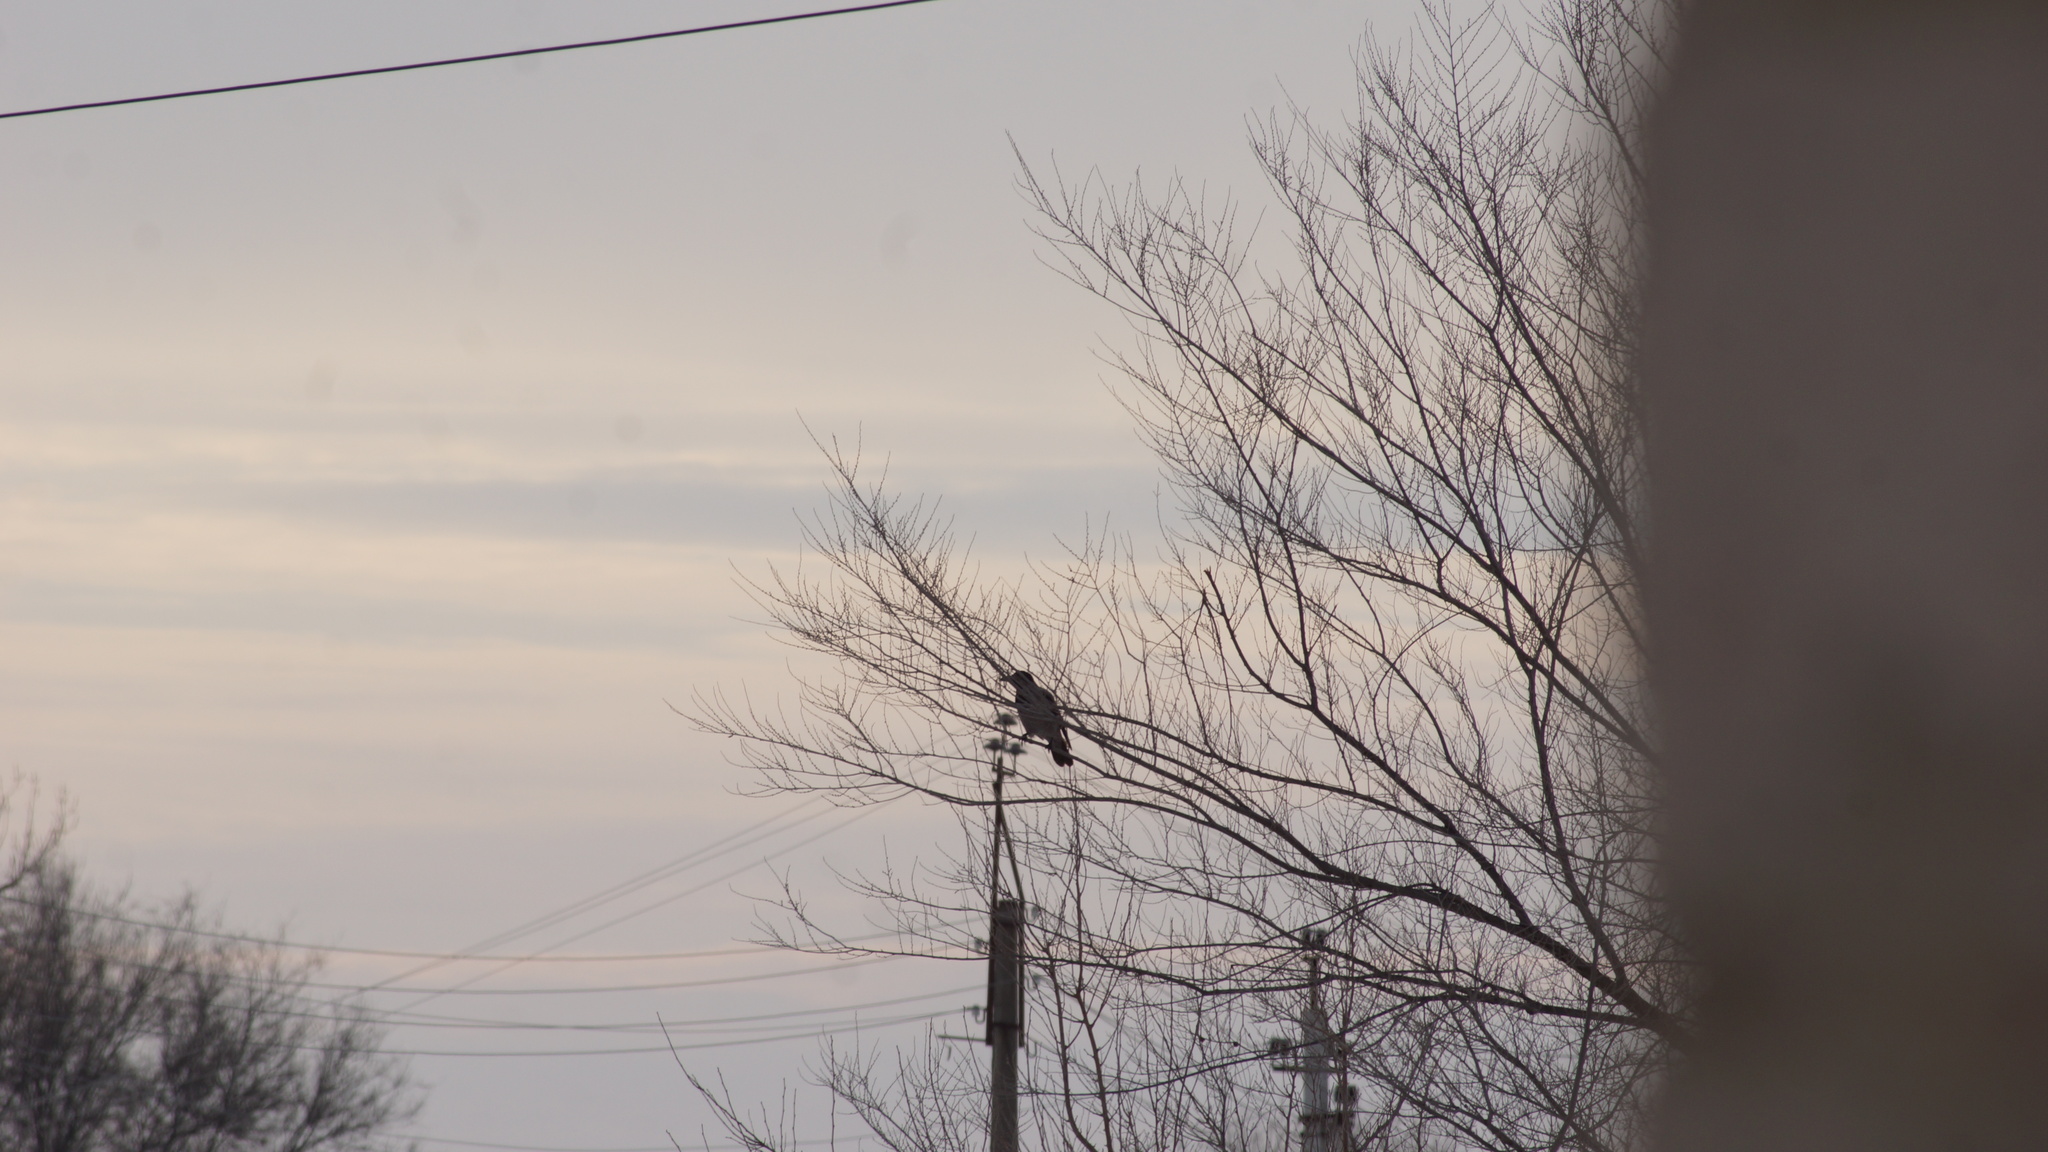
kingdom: Animalia
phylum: Chordata
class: Aves
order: Passeriformes
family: Corvidae
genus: Corvus
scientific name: Corvus cornix
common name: Hooded crow
